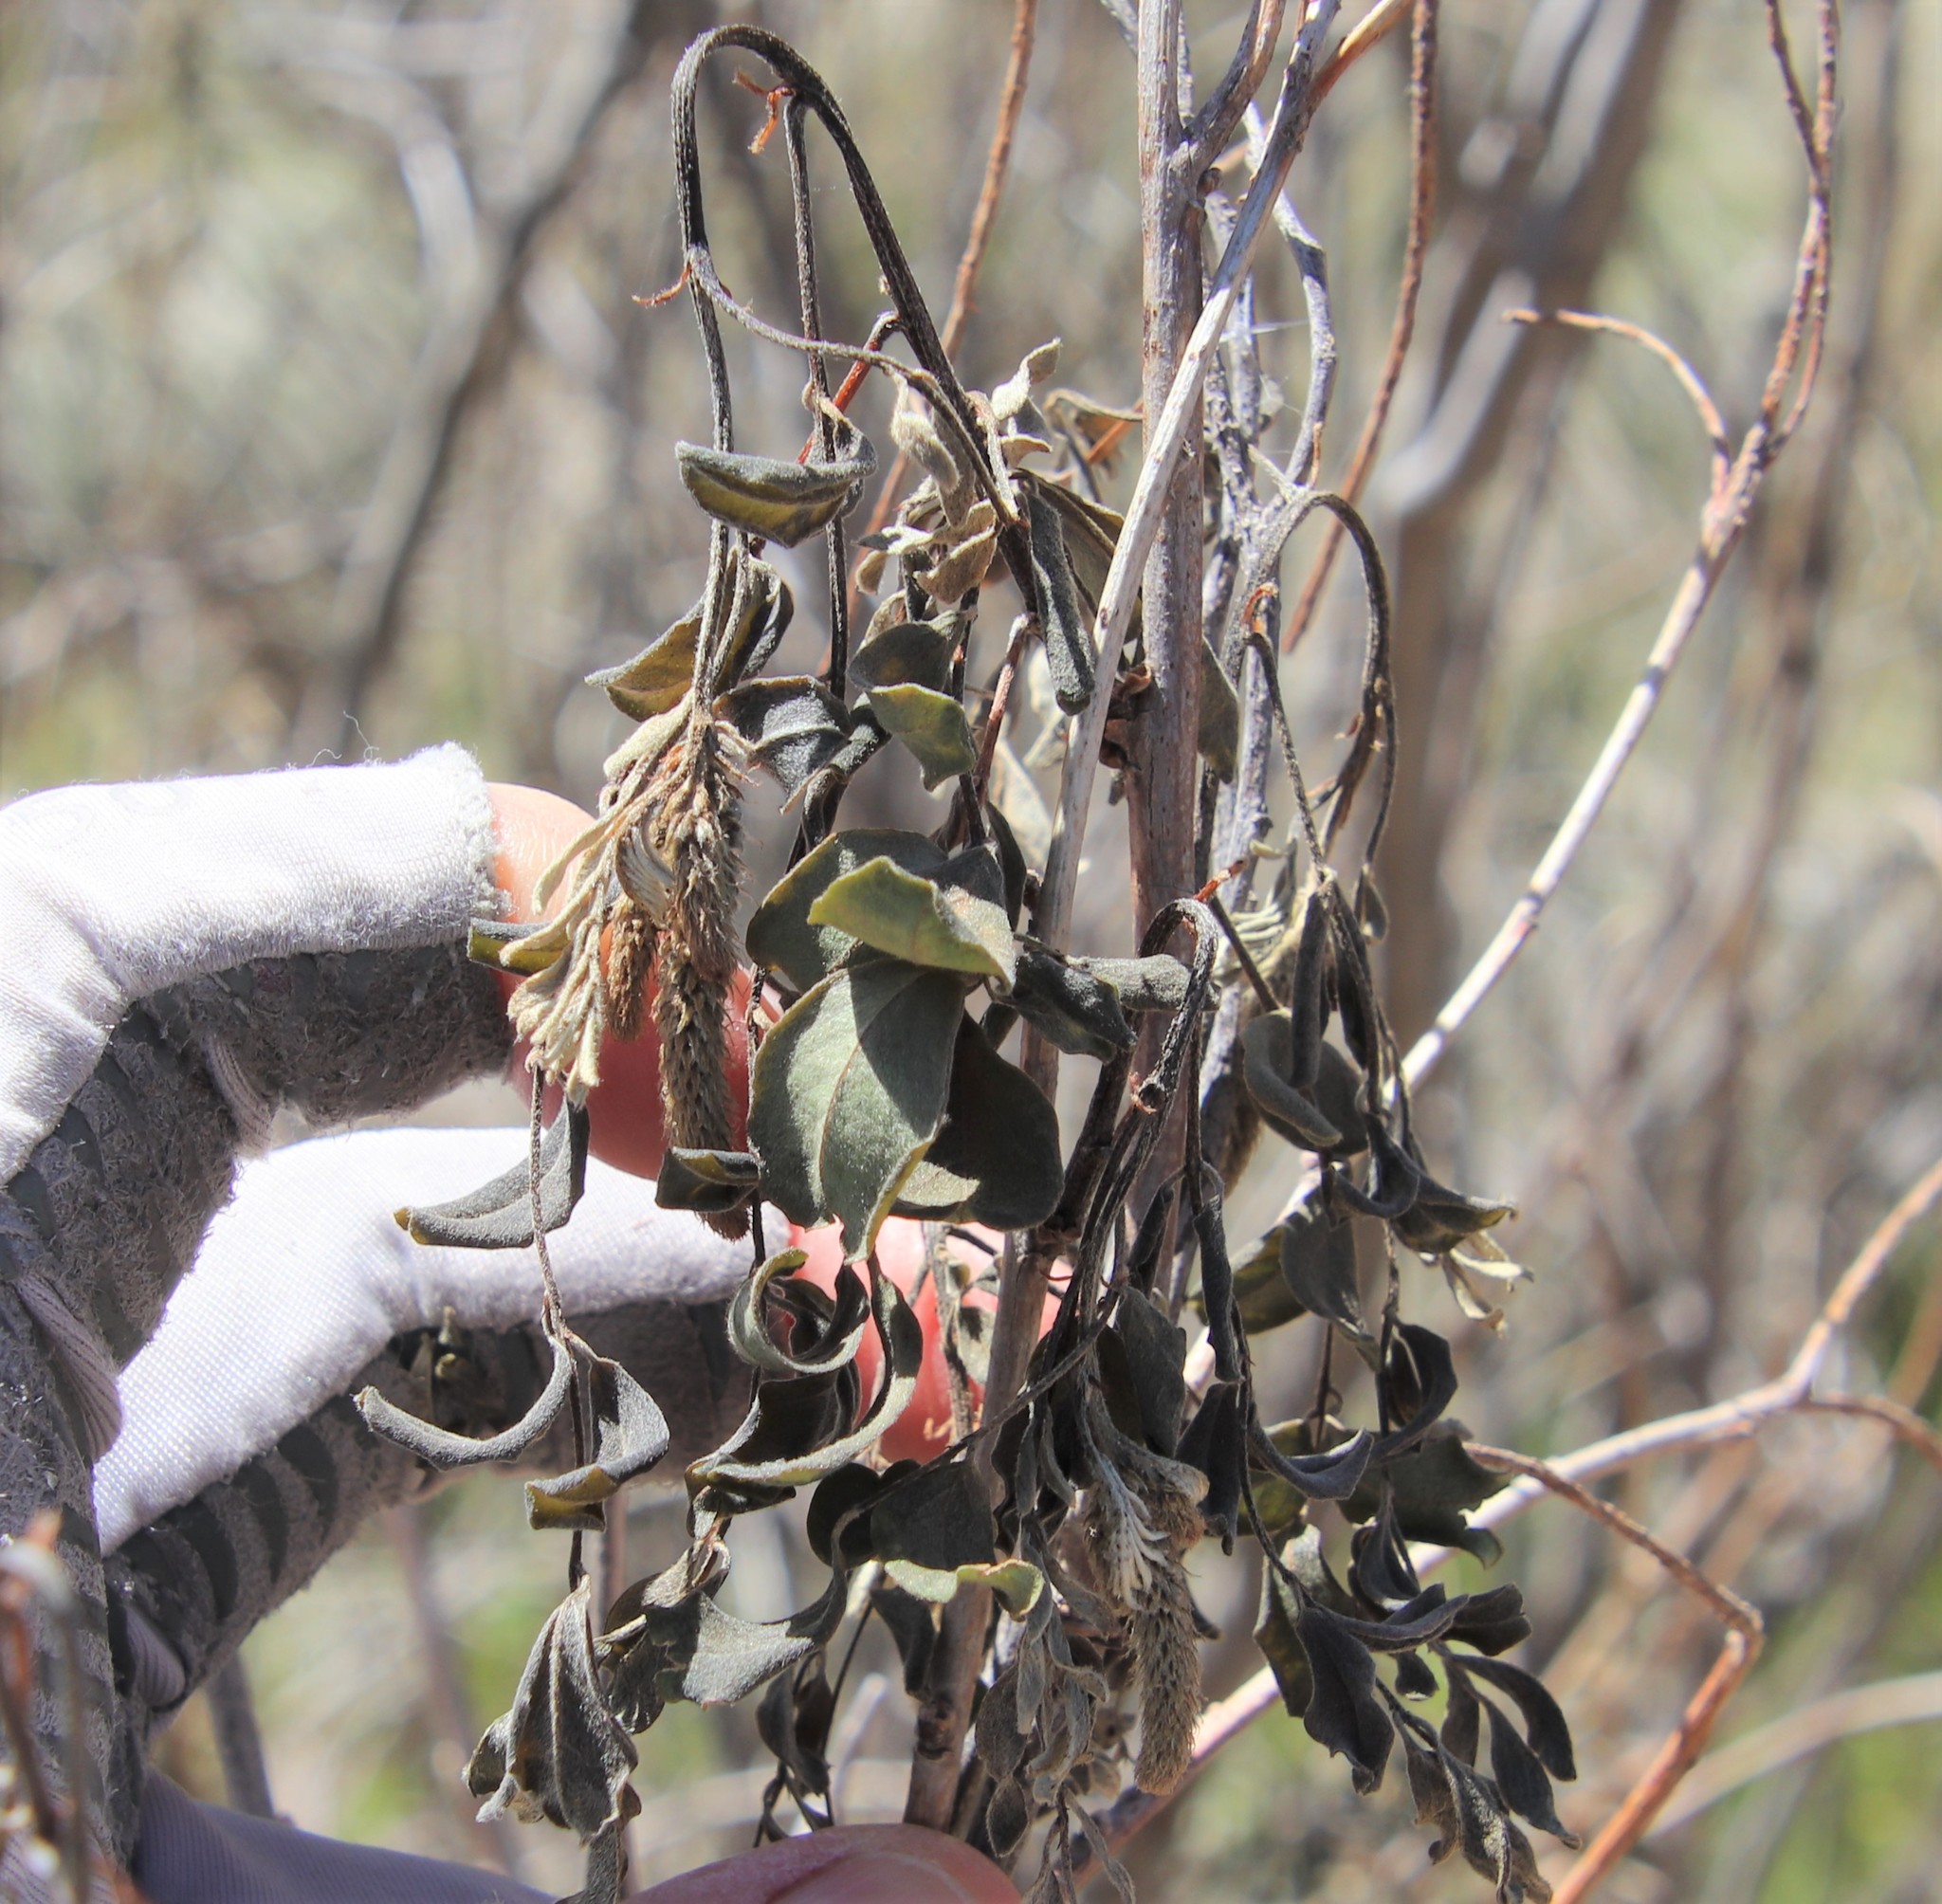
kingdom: Plantae
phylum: Tracheophyta
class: Magnoliopsida
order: Fabales
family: Fabaceae
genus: Amorpha
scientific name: Amorpha fruticosa
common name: False indigo
